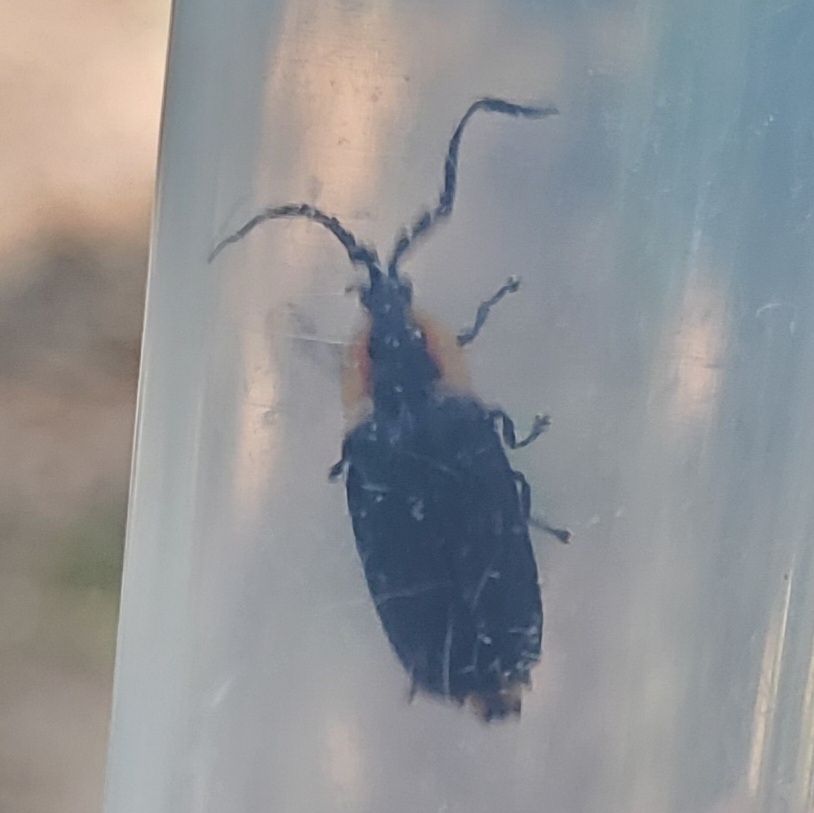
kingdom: Animalia
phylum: Arthropoda
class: Insecta
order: Coleoptera
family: Lampyridae
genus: Lucidota
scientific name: Lucidota atra
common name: Black firefly
